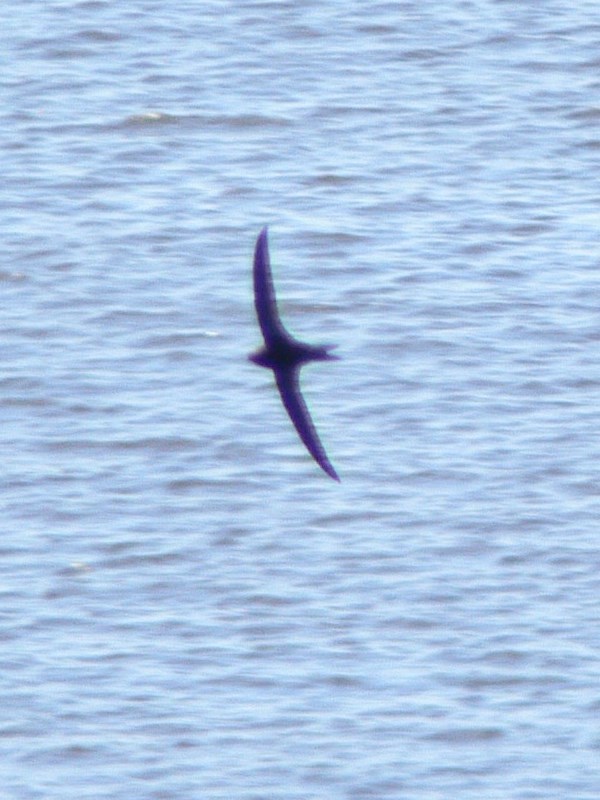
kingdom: Animalia
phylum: Chordata
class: Aves
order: Apodiformes
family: Apodidae
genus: Apus
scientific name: Apus apus
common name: Common swift
